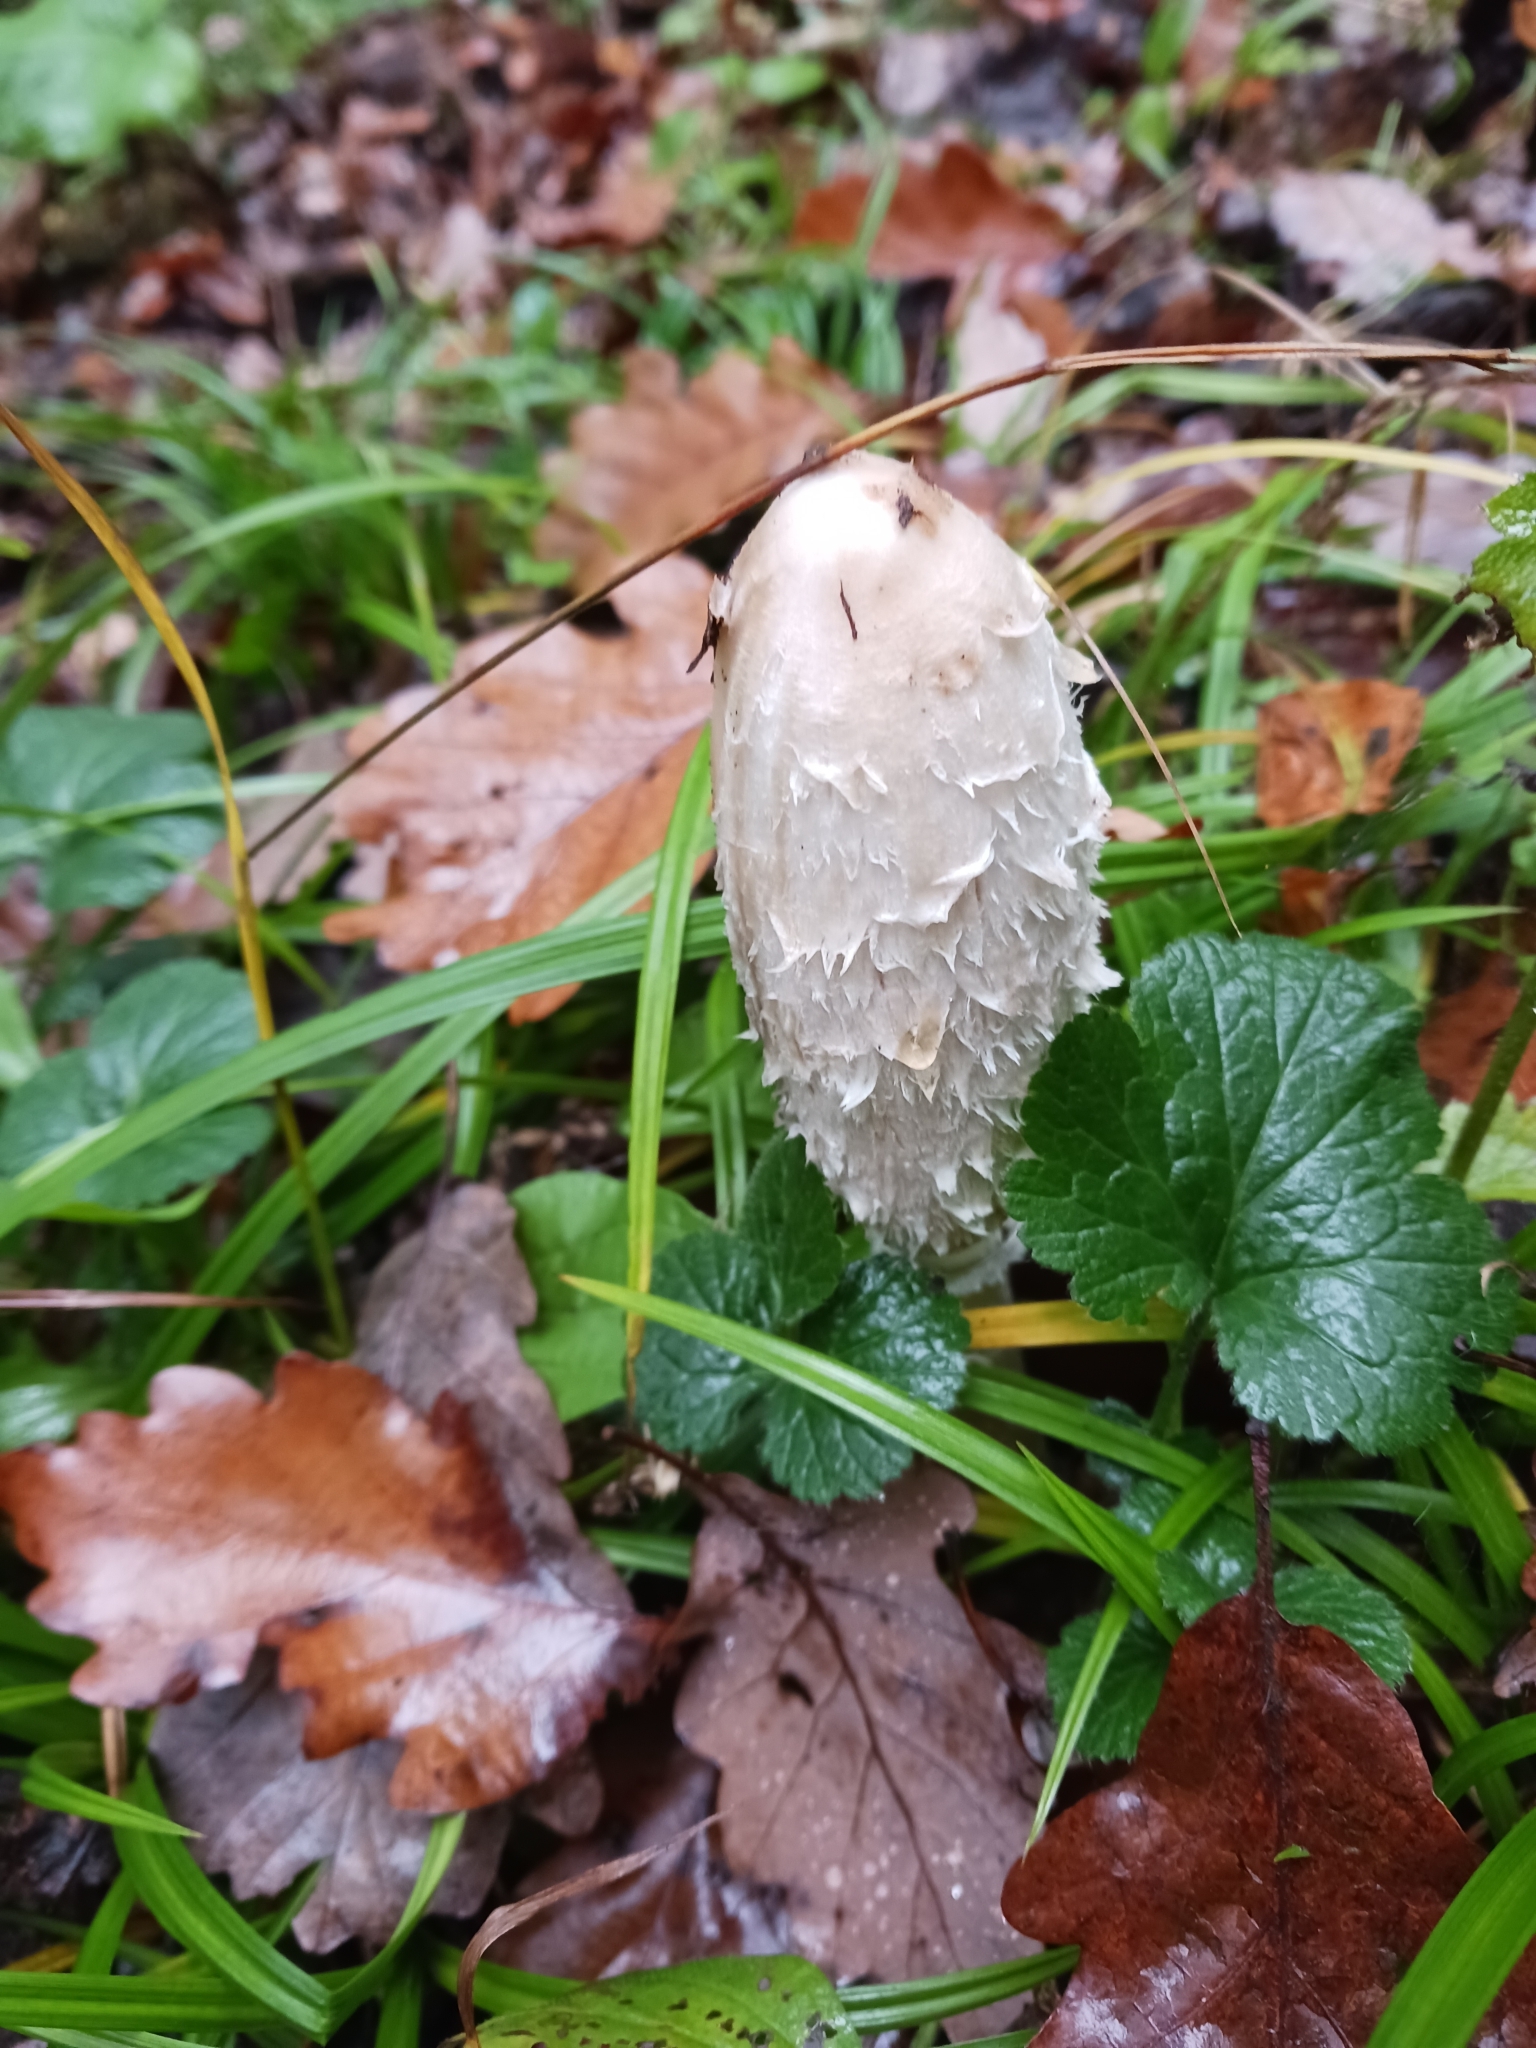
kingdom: Fungi
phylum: Basidiomycota
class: Agaricomycetes
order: Agaricales
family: Agaricaceae
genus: Coprinus
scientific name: Coprinus comatus
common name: Lawyer's wig
